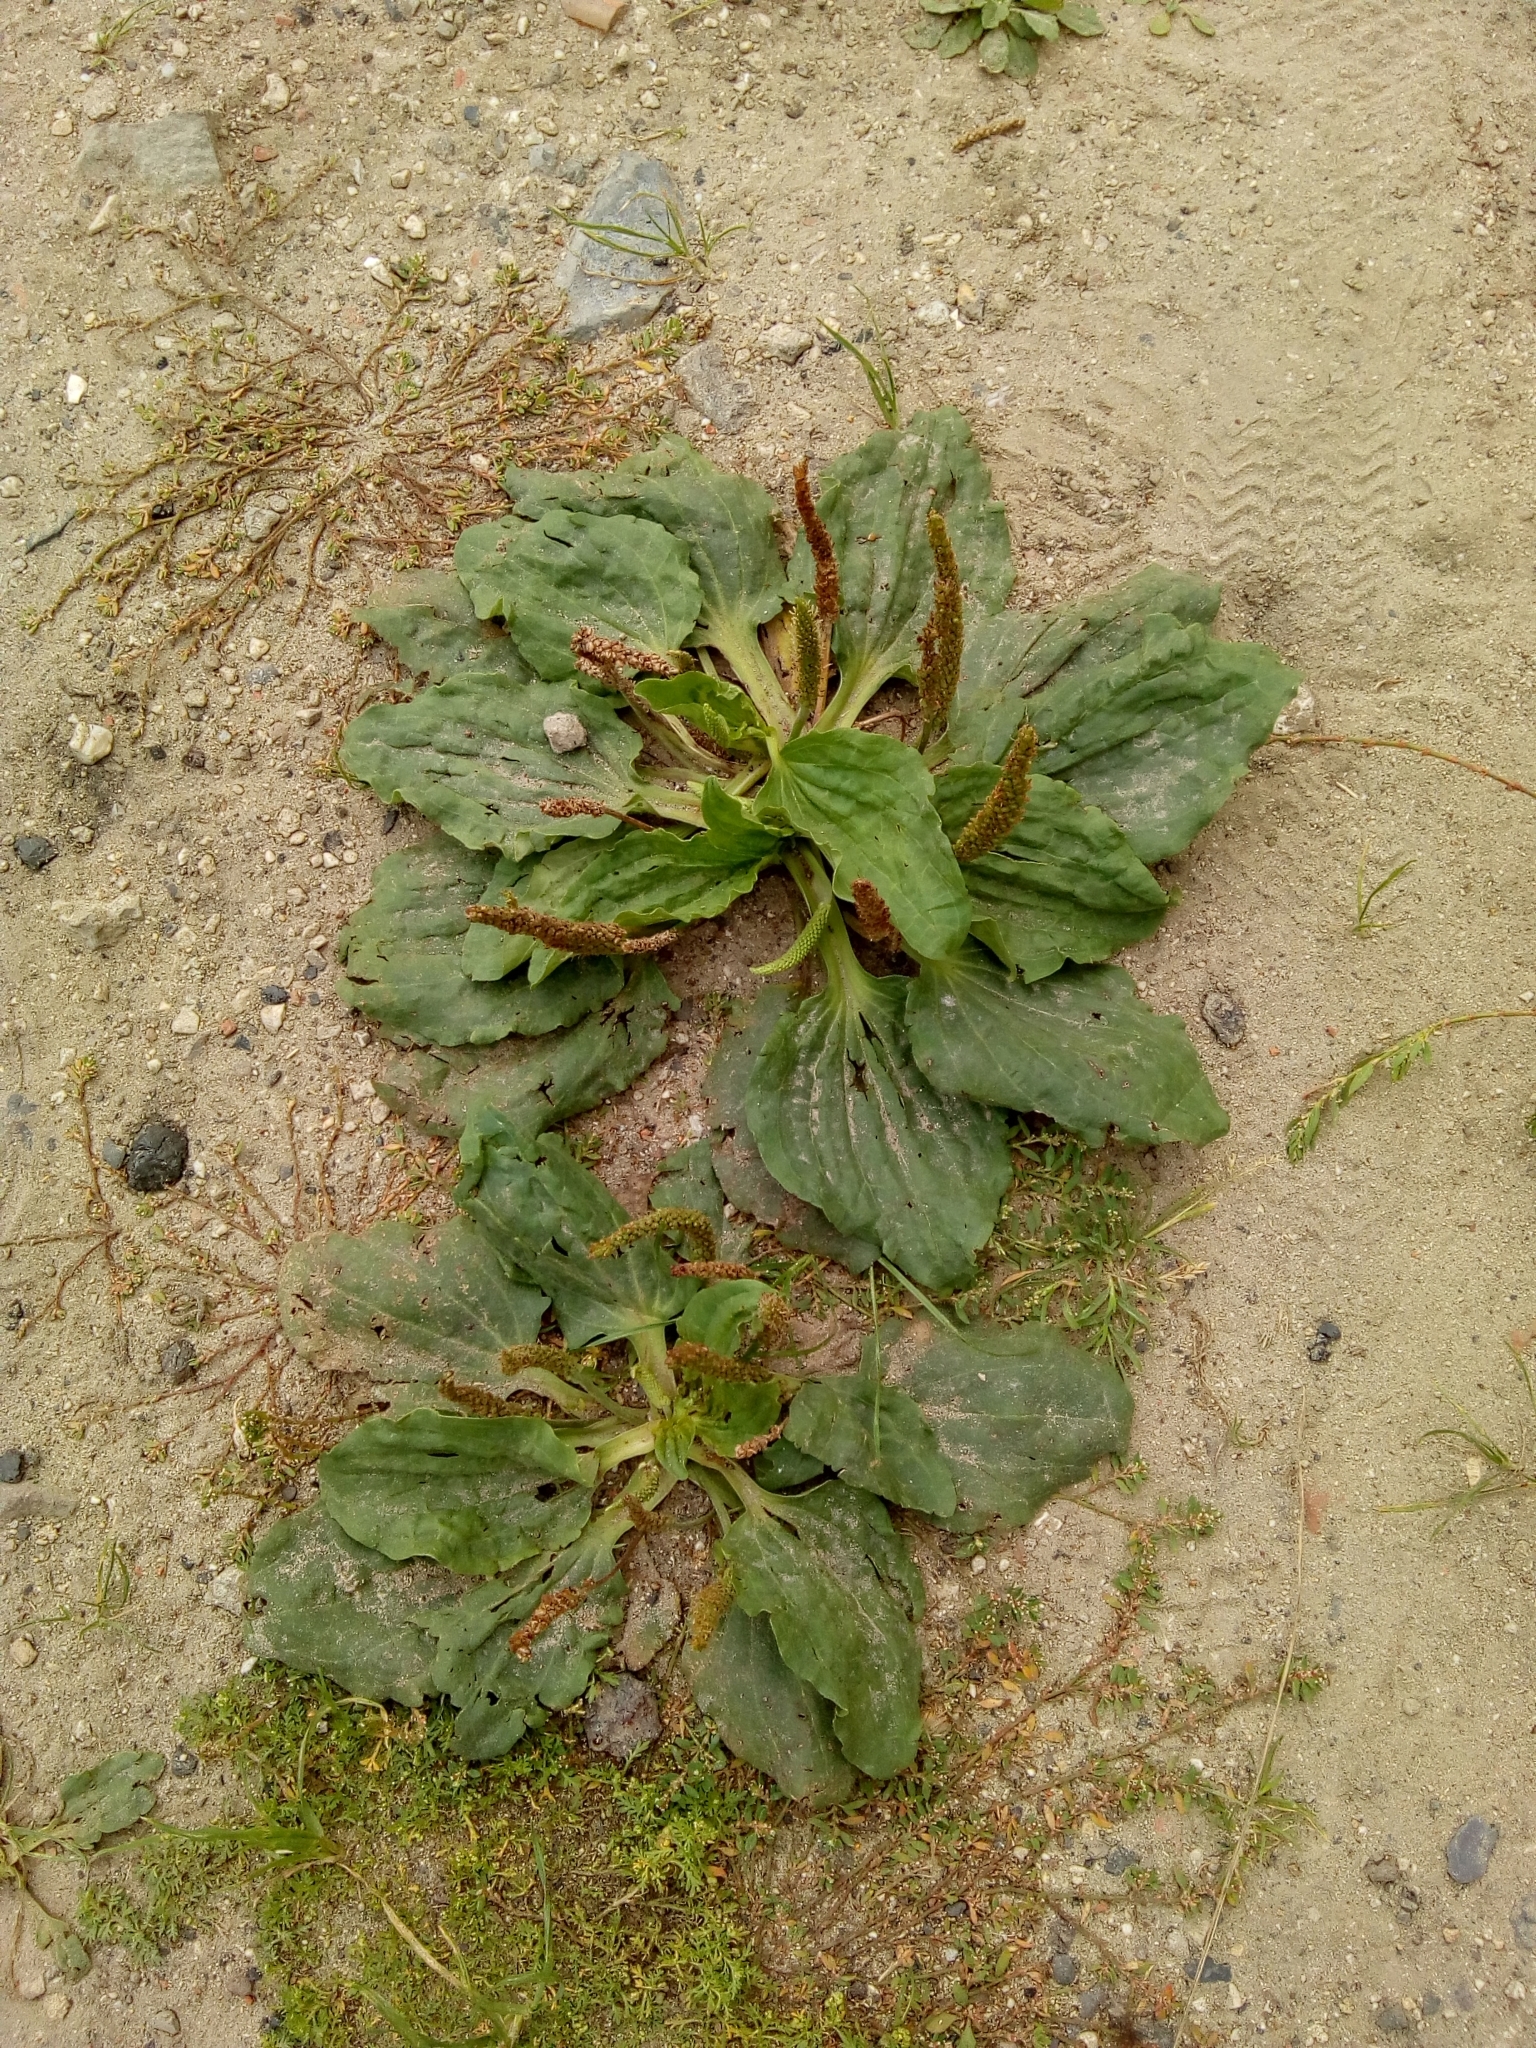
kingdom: Plantae
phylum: Tracheophyta
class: Magnoliopsida
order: Lamiales
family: Plantaginaceae
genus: Plantago
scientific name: Plantago major
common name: Common plantain
